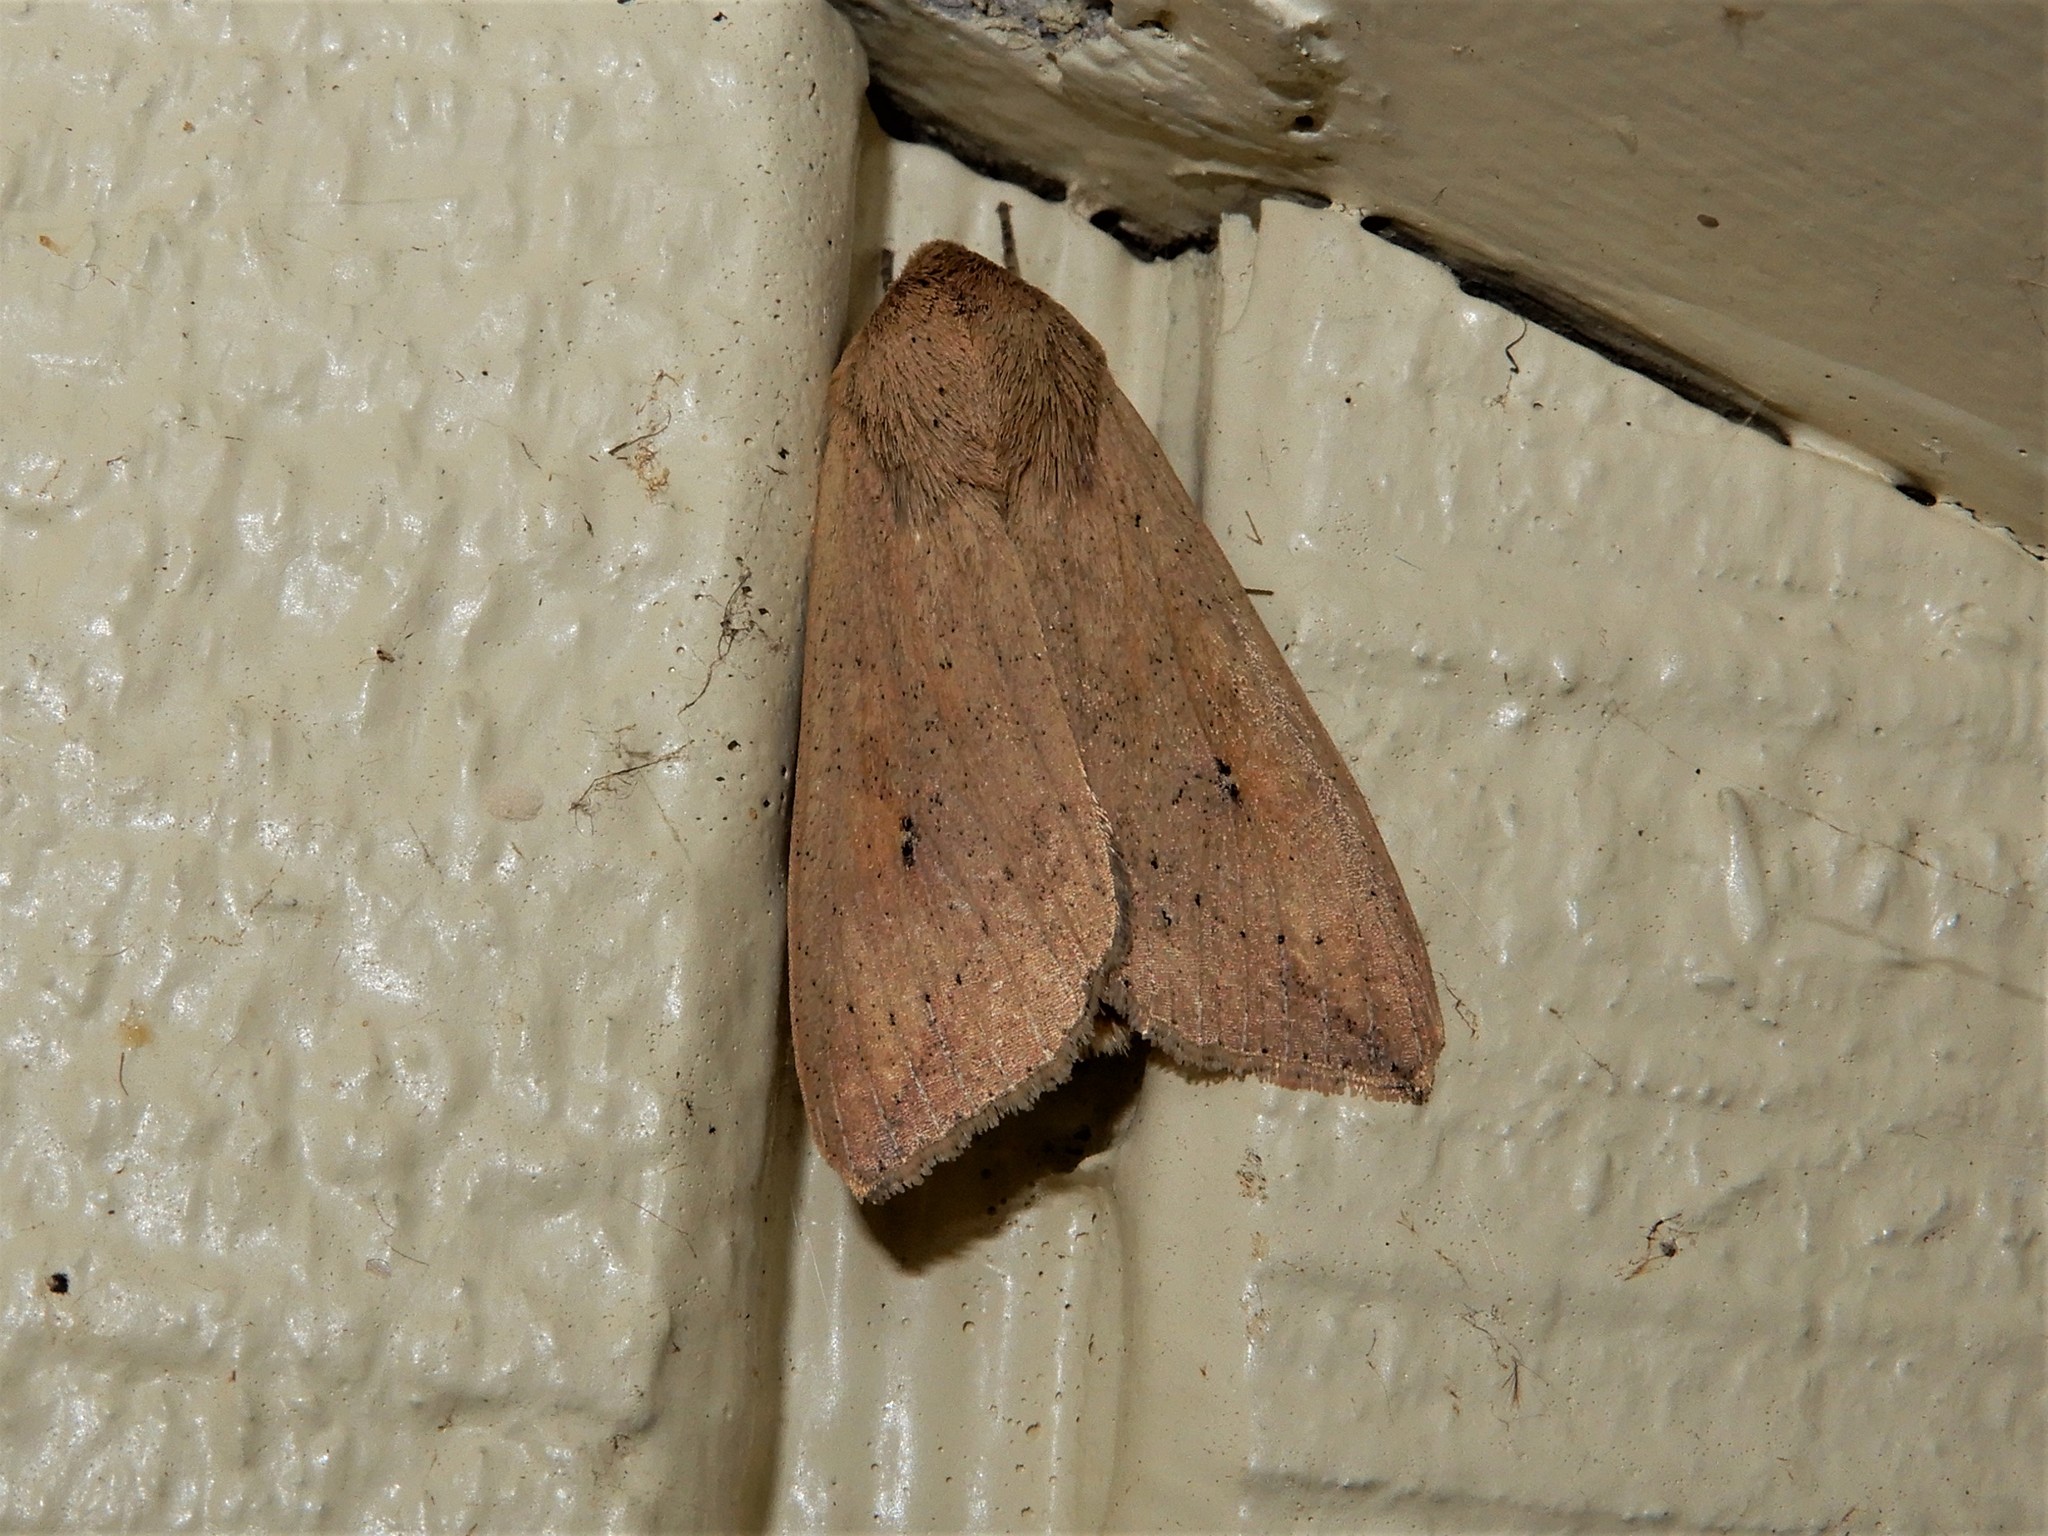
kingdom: Animalia
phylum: Arthropoda
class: Insecta
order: Lepidoptera
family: Noctuidae
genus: Mythimna
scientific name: Mythimna separata
